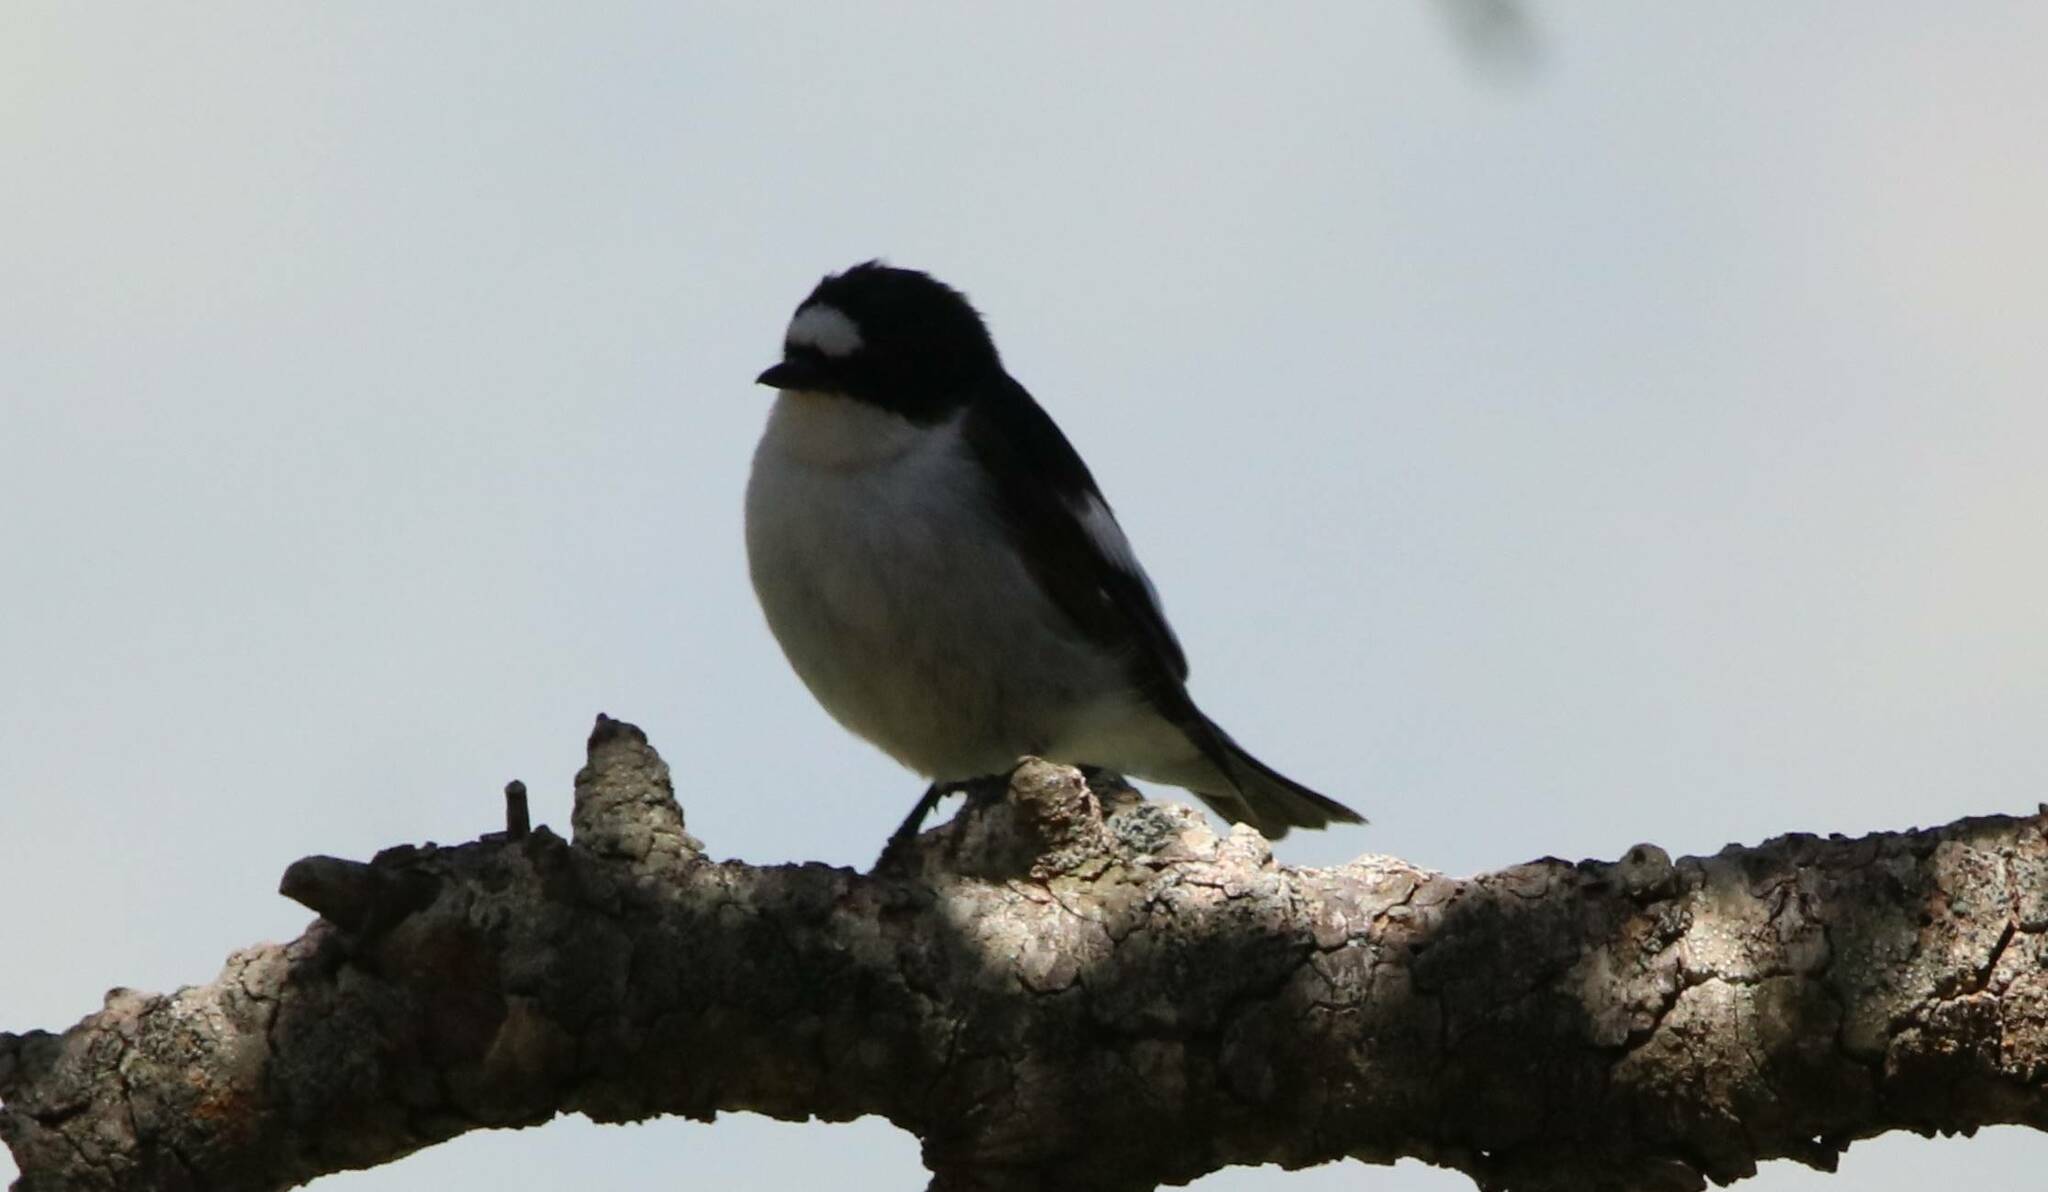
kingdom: Animalia
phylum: Chordata
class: Aves
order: Passeriformes
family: Muscicapidae
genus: Ficedula
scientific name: Ficedula speculigera
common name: Atlas pied flycatcher
